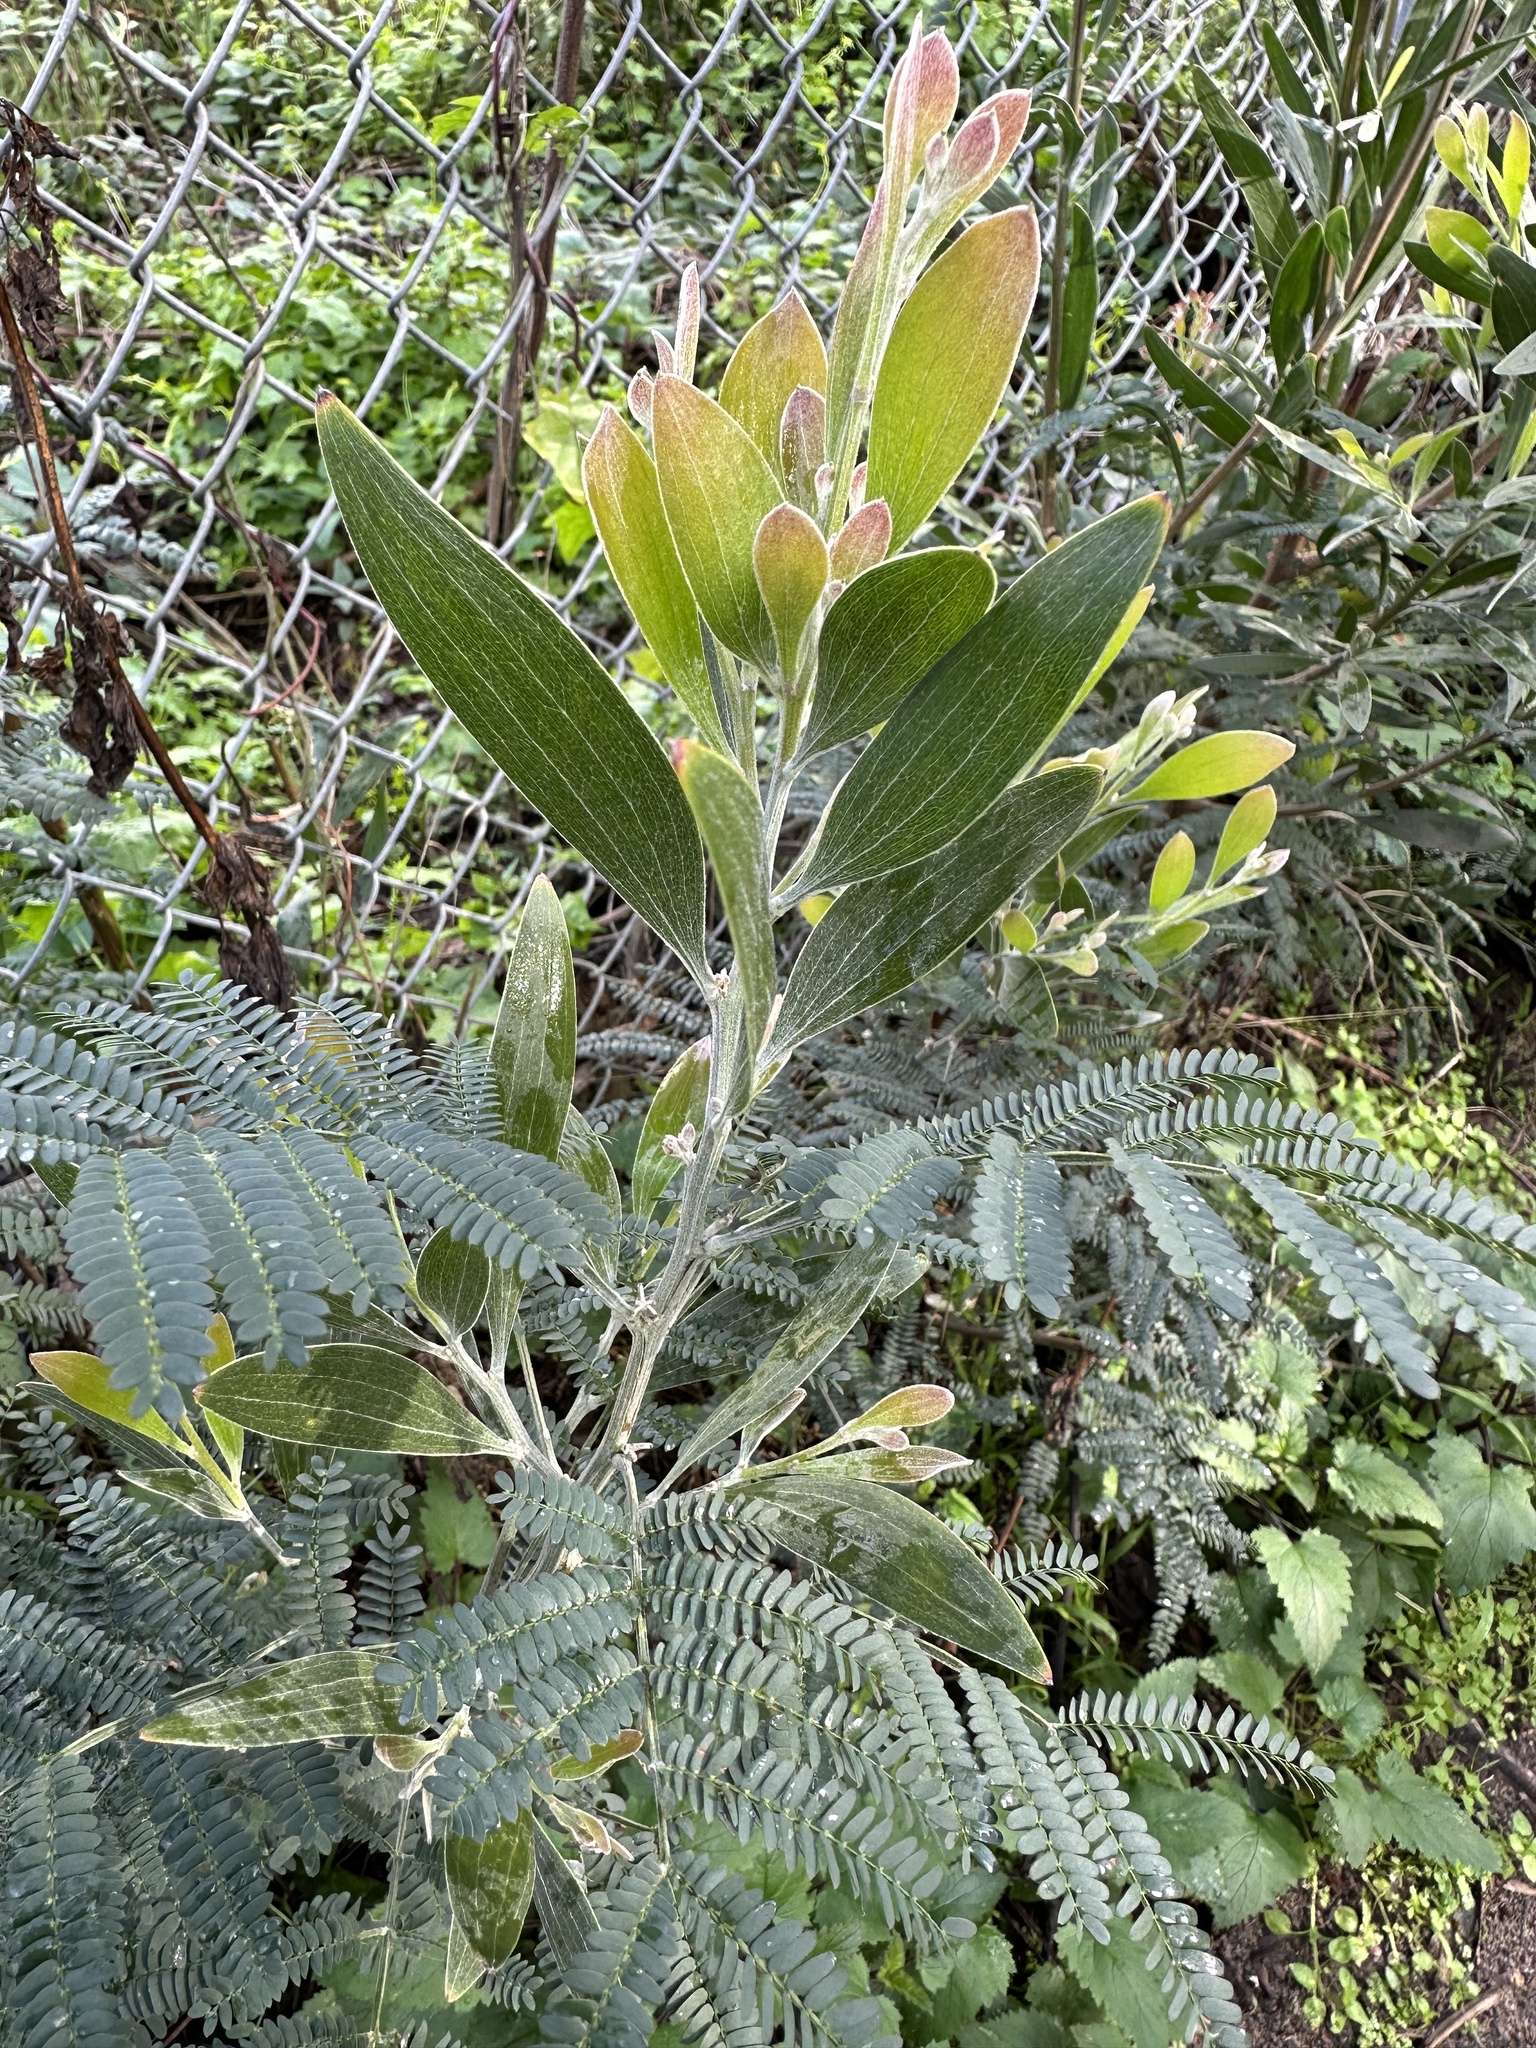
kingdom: Plantae
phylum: Tracheophyta
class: Magnoliopsida
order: Fabales
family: Fabaceae
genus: Acacia
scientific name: Acacia melanoxylon
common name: Blackwood
